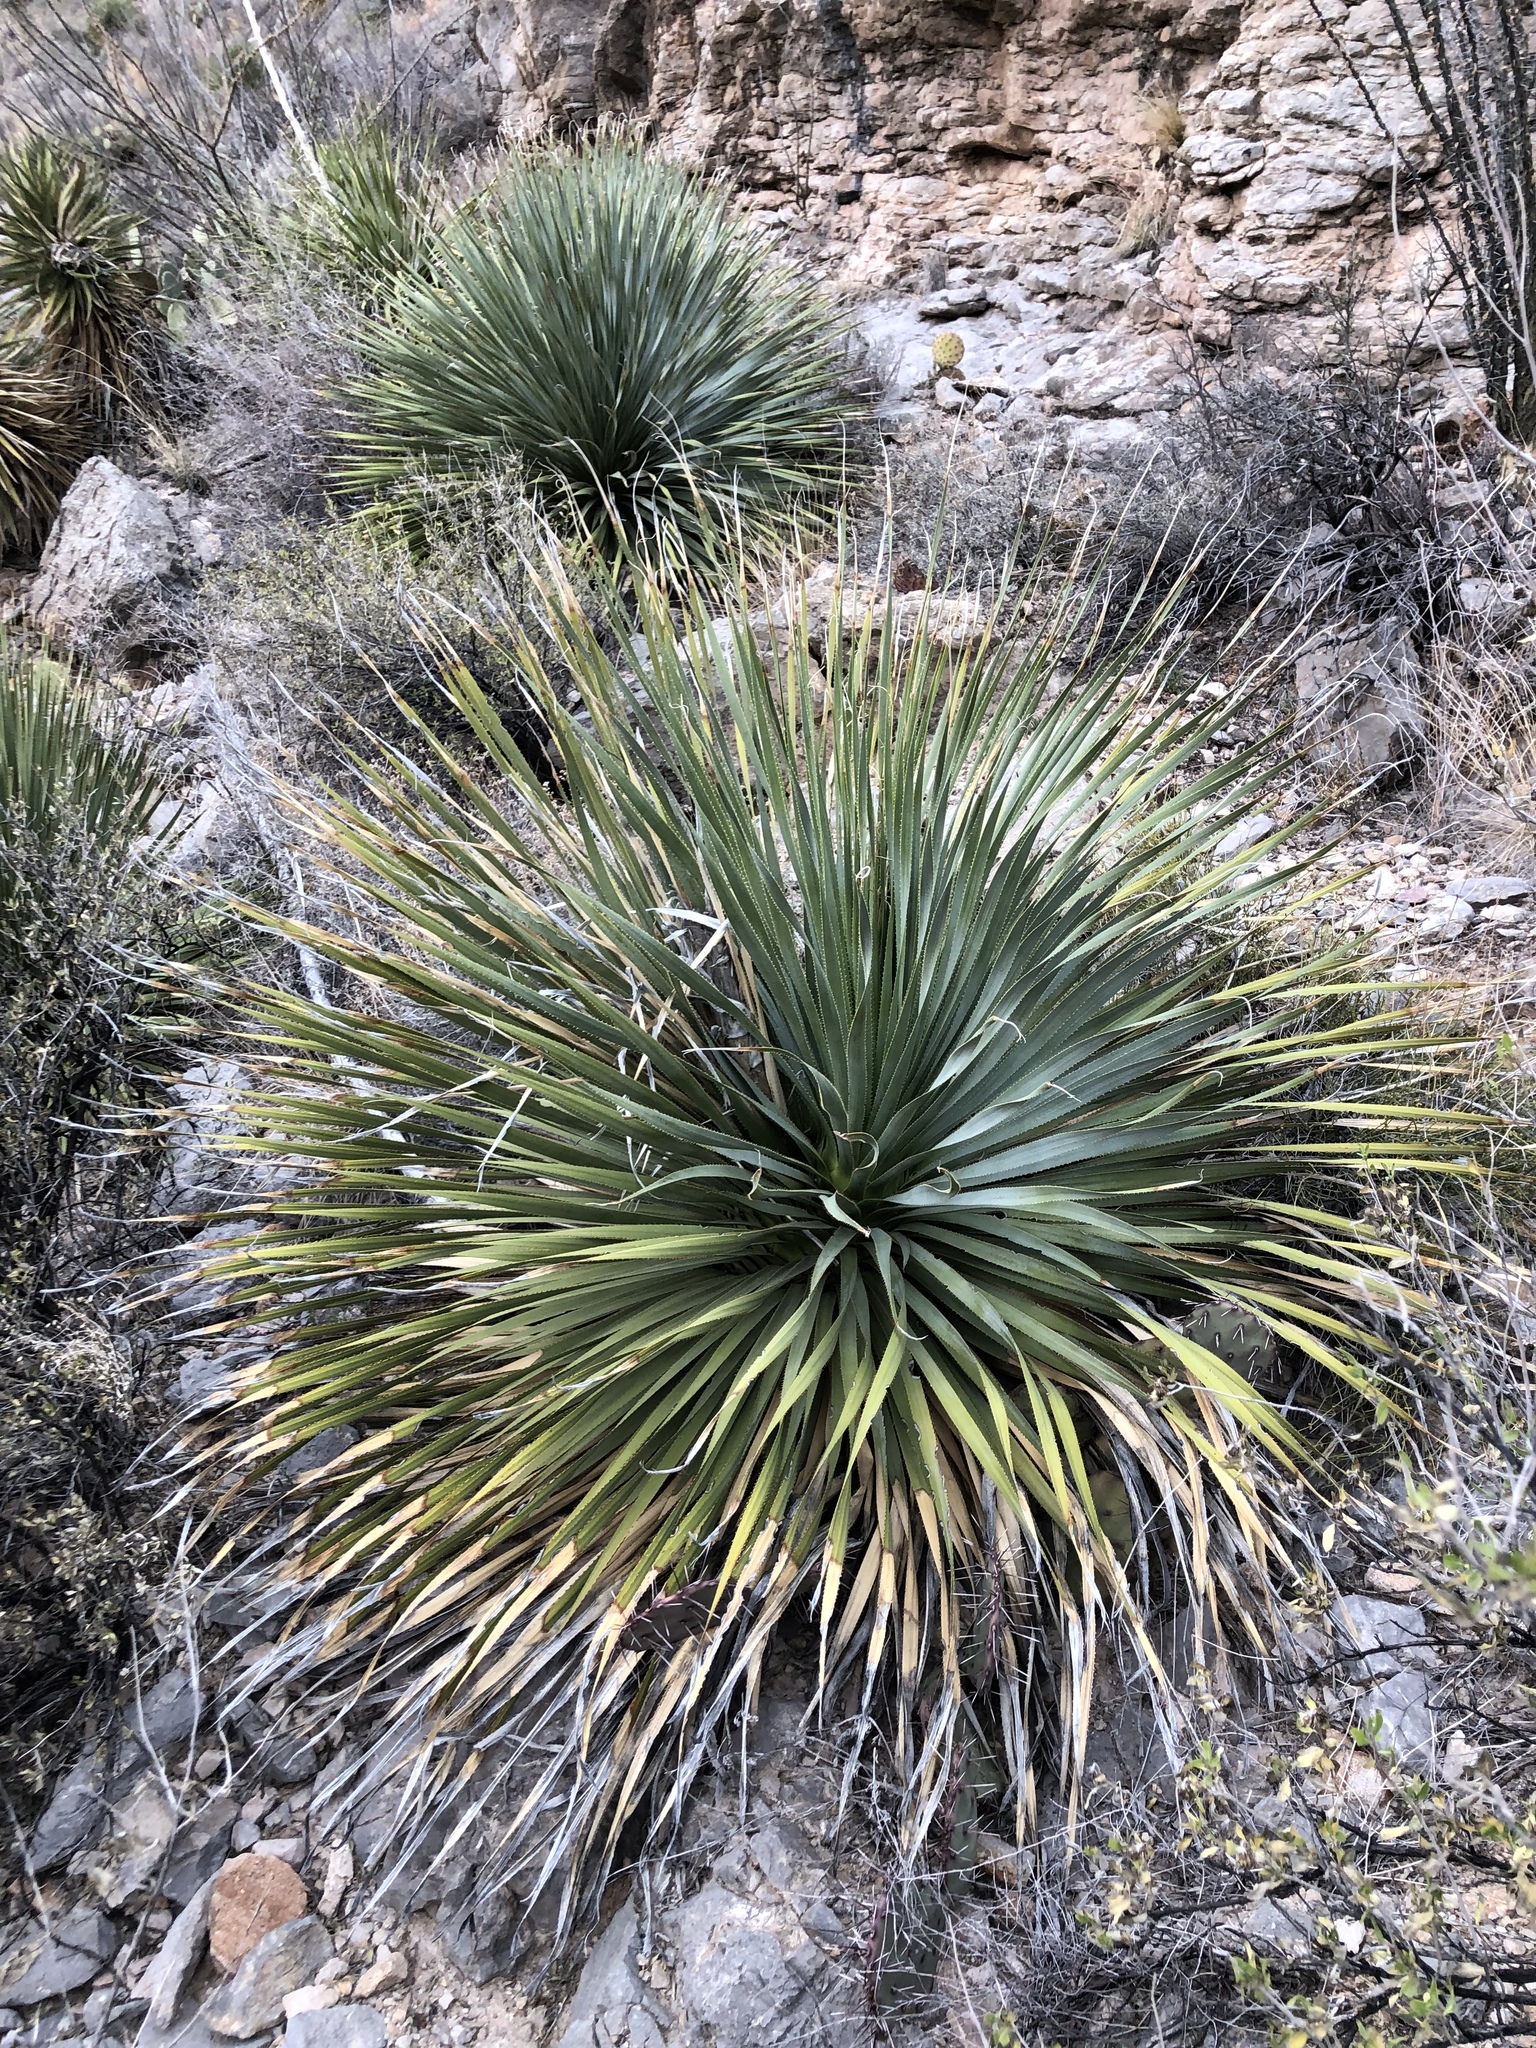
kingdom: Plantae
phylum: Tracheophyta
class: Liliopsida
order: Asparagales
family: Asparagaceae
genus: Dasylirion
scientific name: Dasylirion wheeleri
